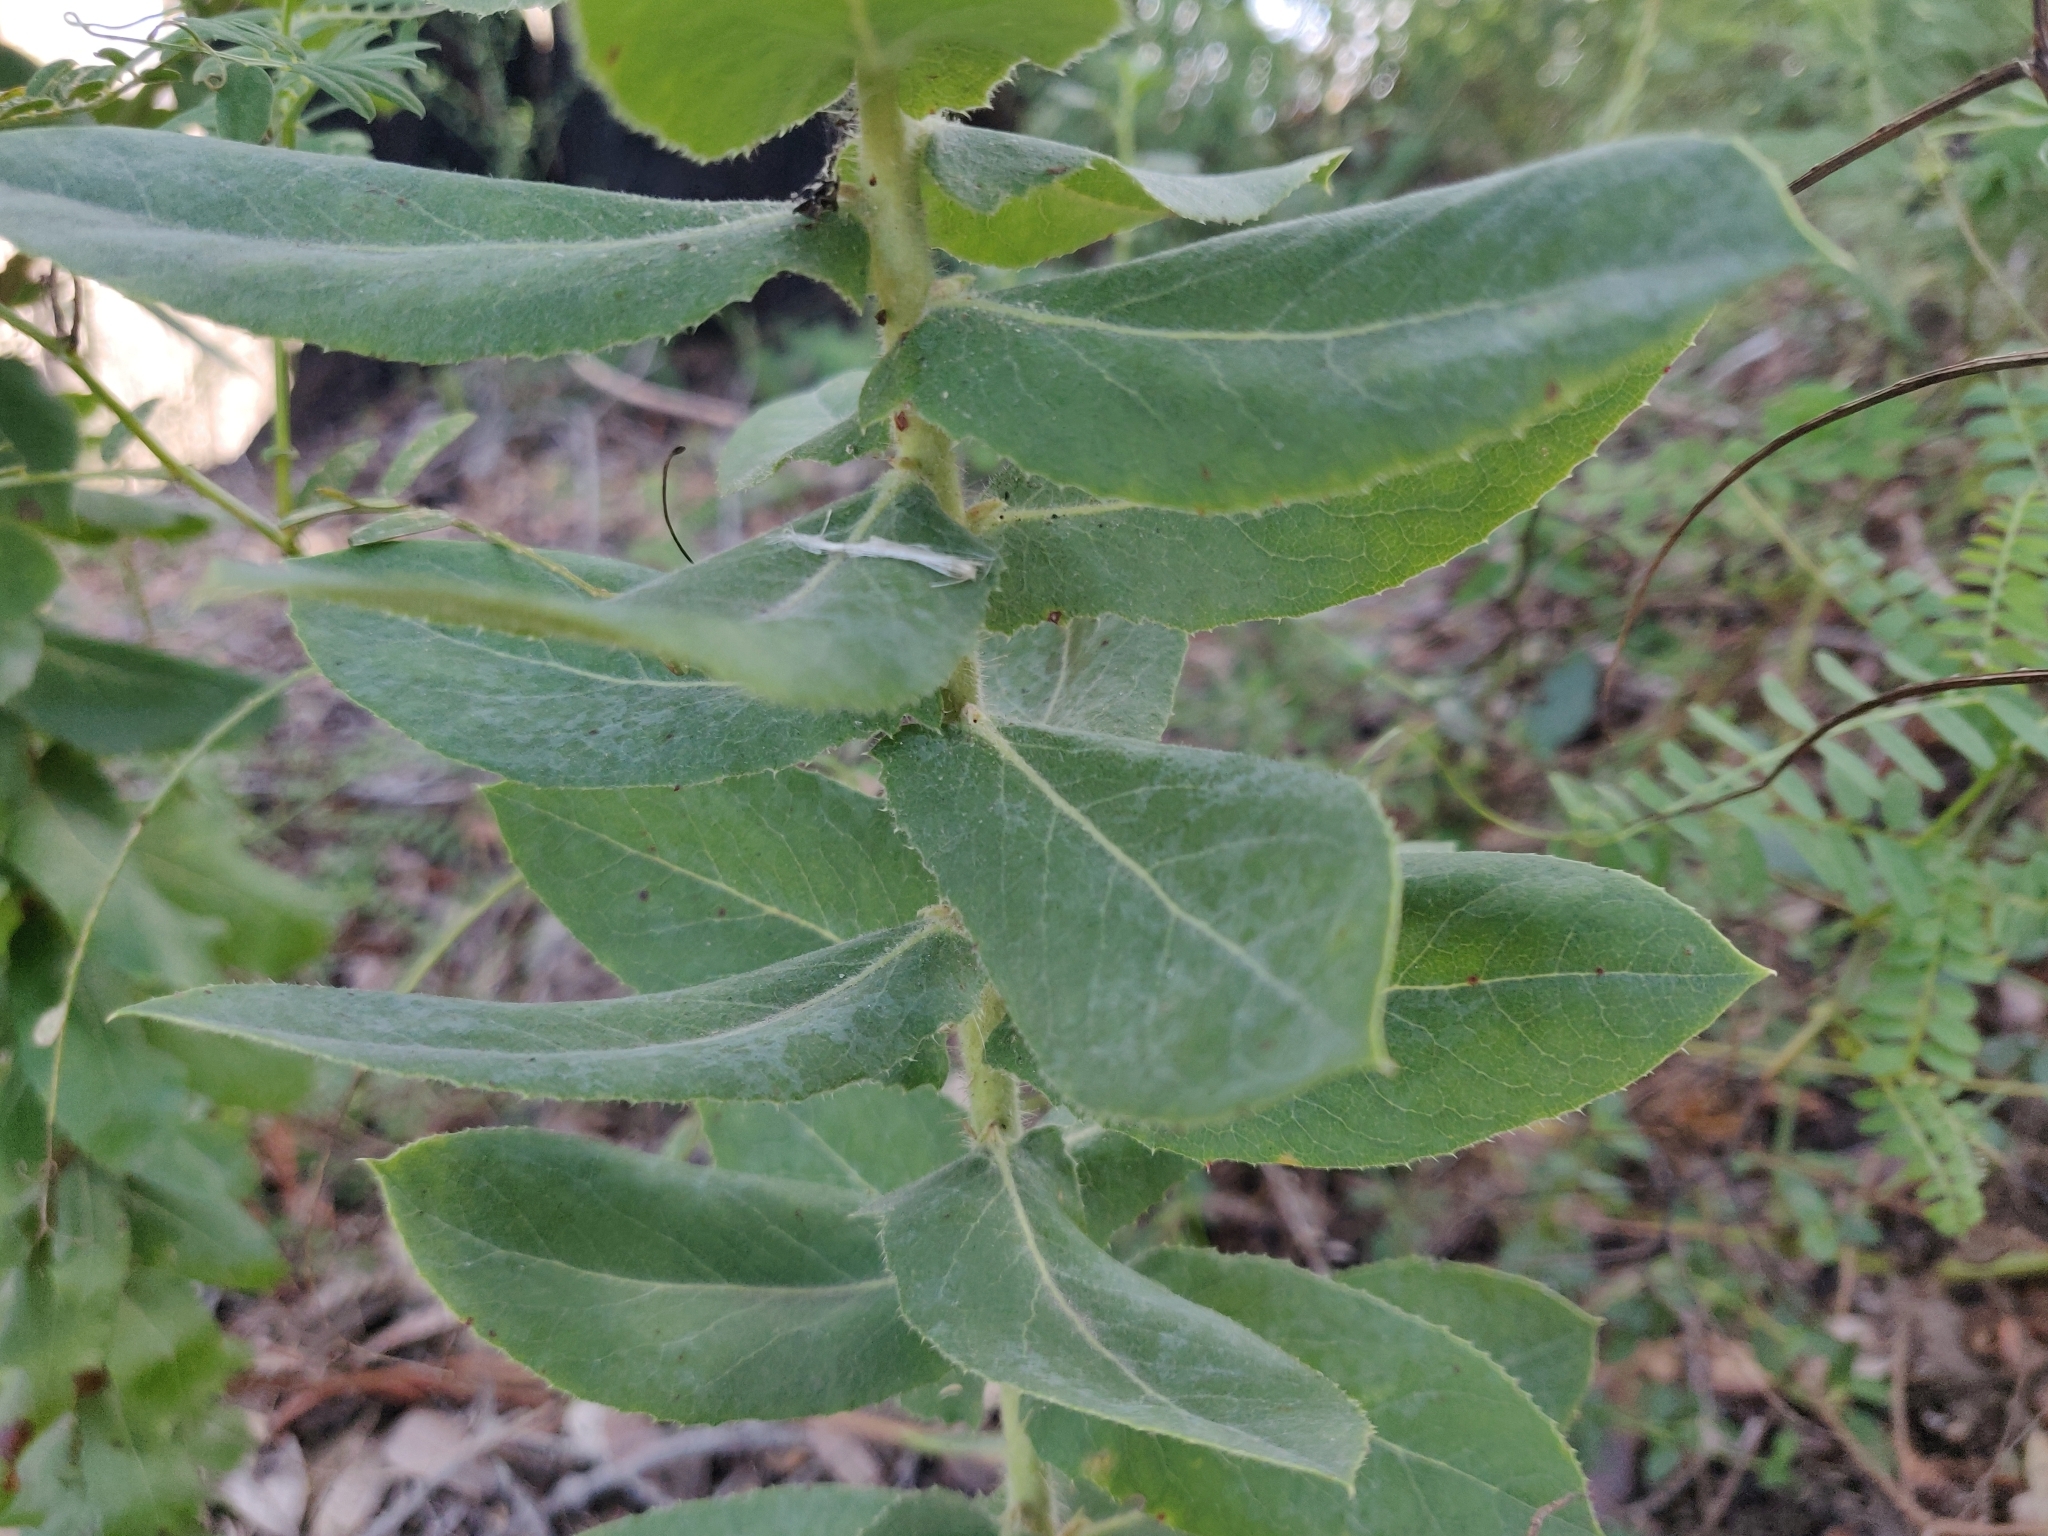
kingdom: Plantae
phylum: Tracheophyta
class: Magnoliopsida
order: Ericales
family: Ericaceae
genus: Arctostaphylos
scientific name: Arctostaphylos andersonii
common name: Santa cruz manzanita
